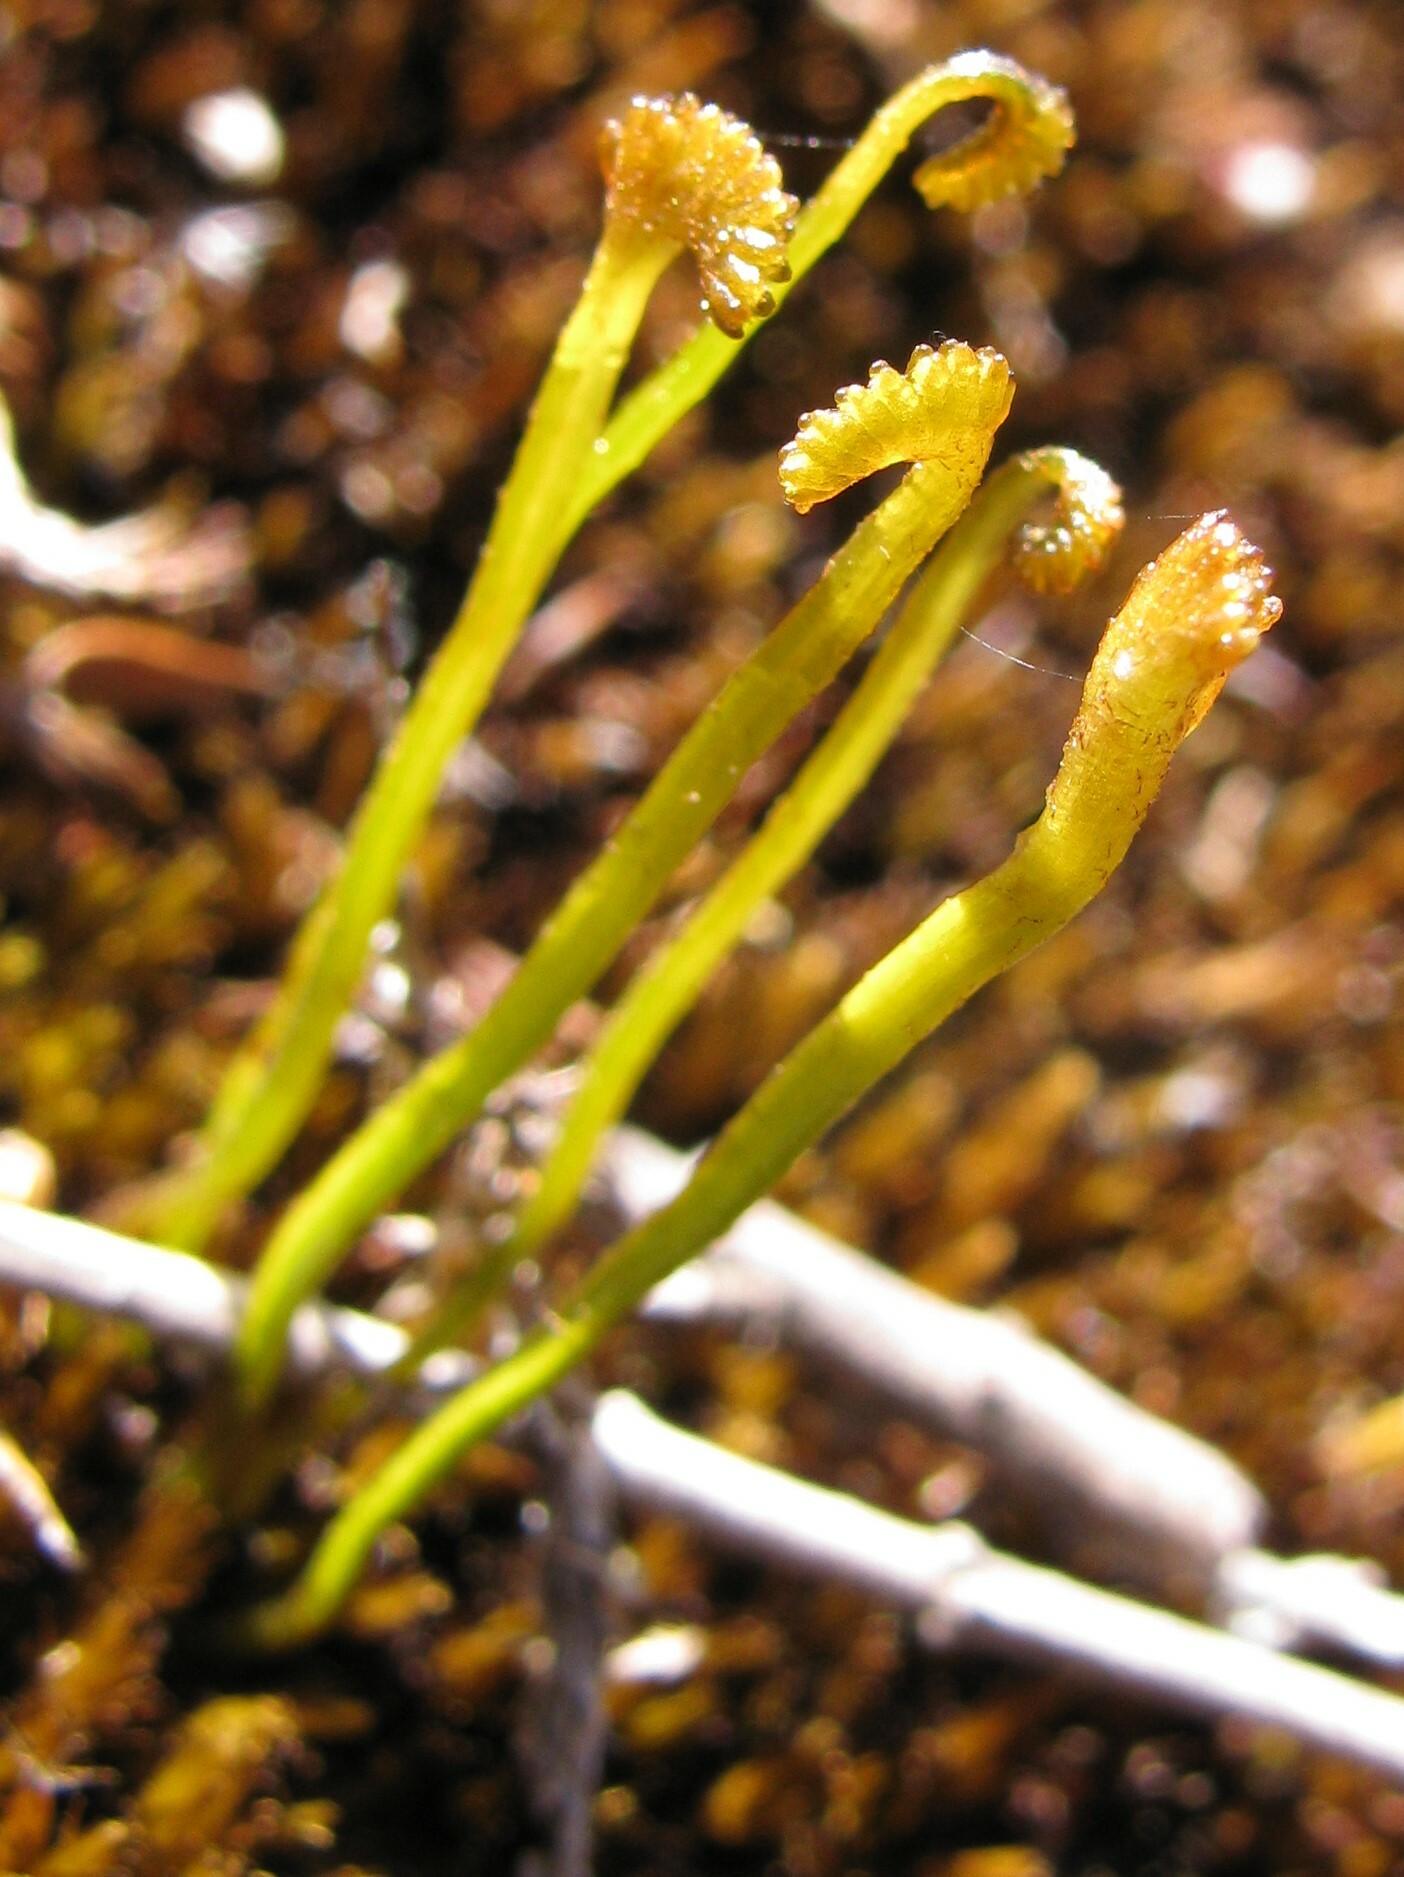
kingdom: Plantae
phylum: Tracheophyta
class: Polypodiopsida
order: Schizaeales
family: Schizaeaceae
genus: Microschizaea
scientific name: Microschizaea fistulosa
